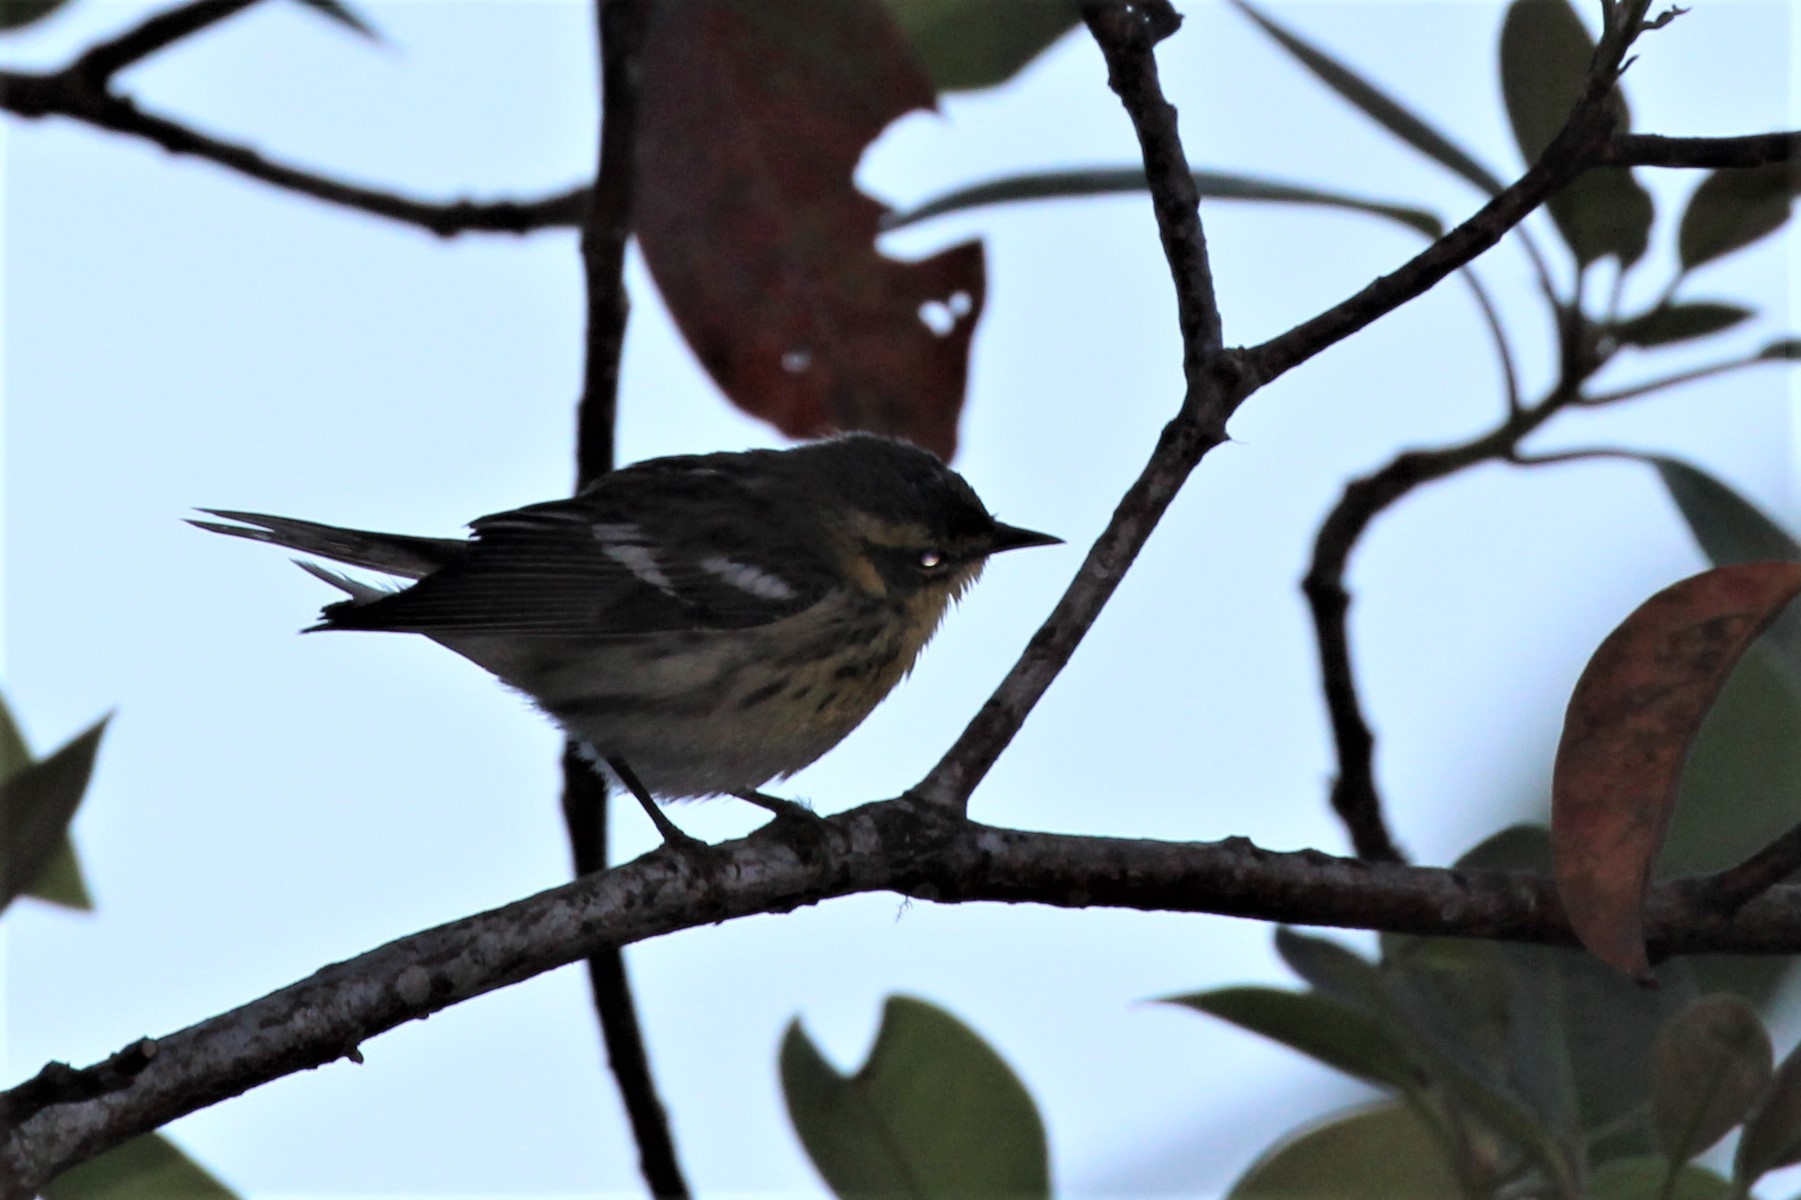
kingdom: Animalia
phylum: Chordata
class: Aves
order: Passeriformes
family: Parulidae
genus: Setophaga
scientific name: Setophaga fusca
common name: Blackburnian warbler
